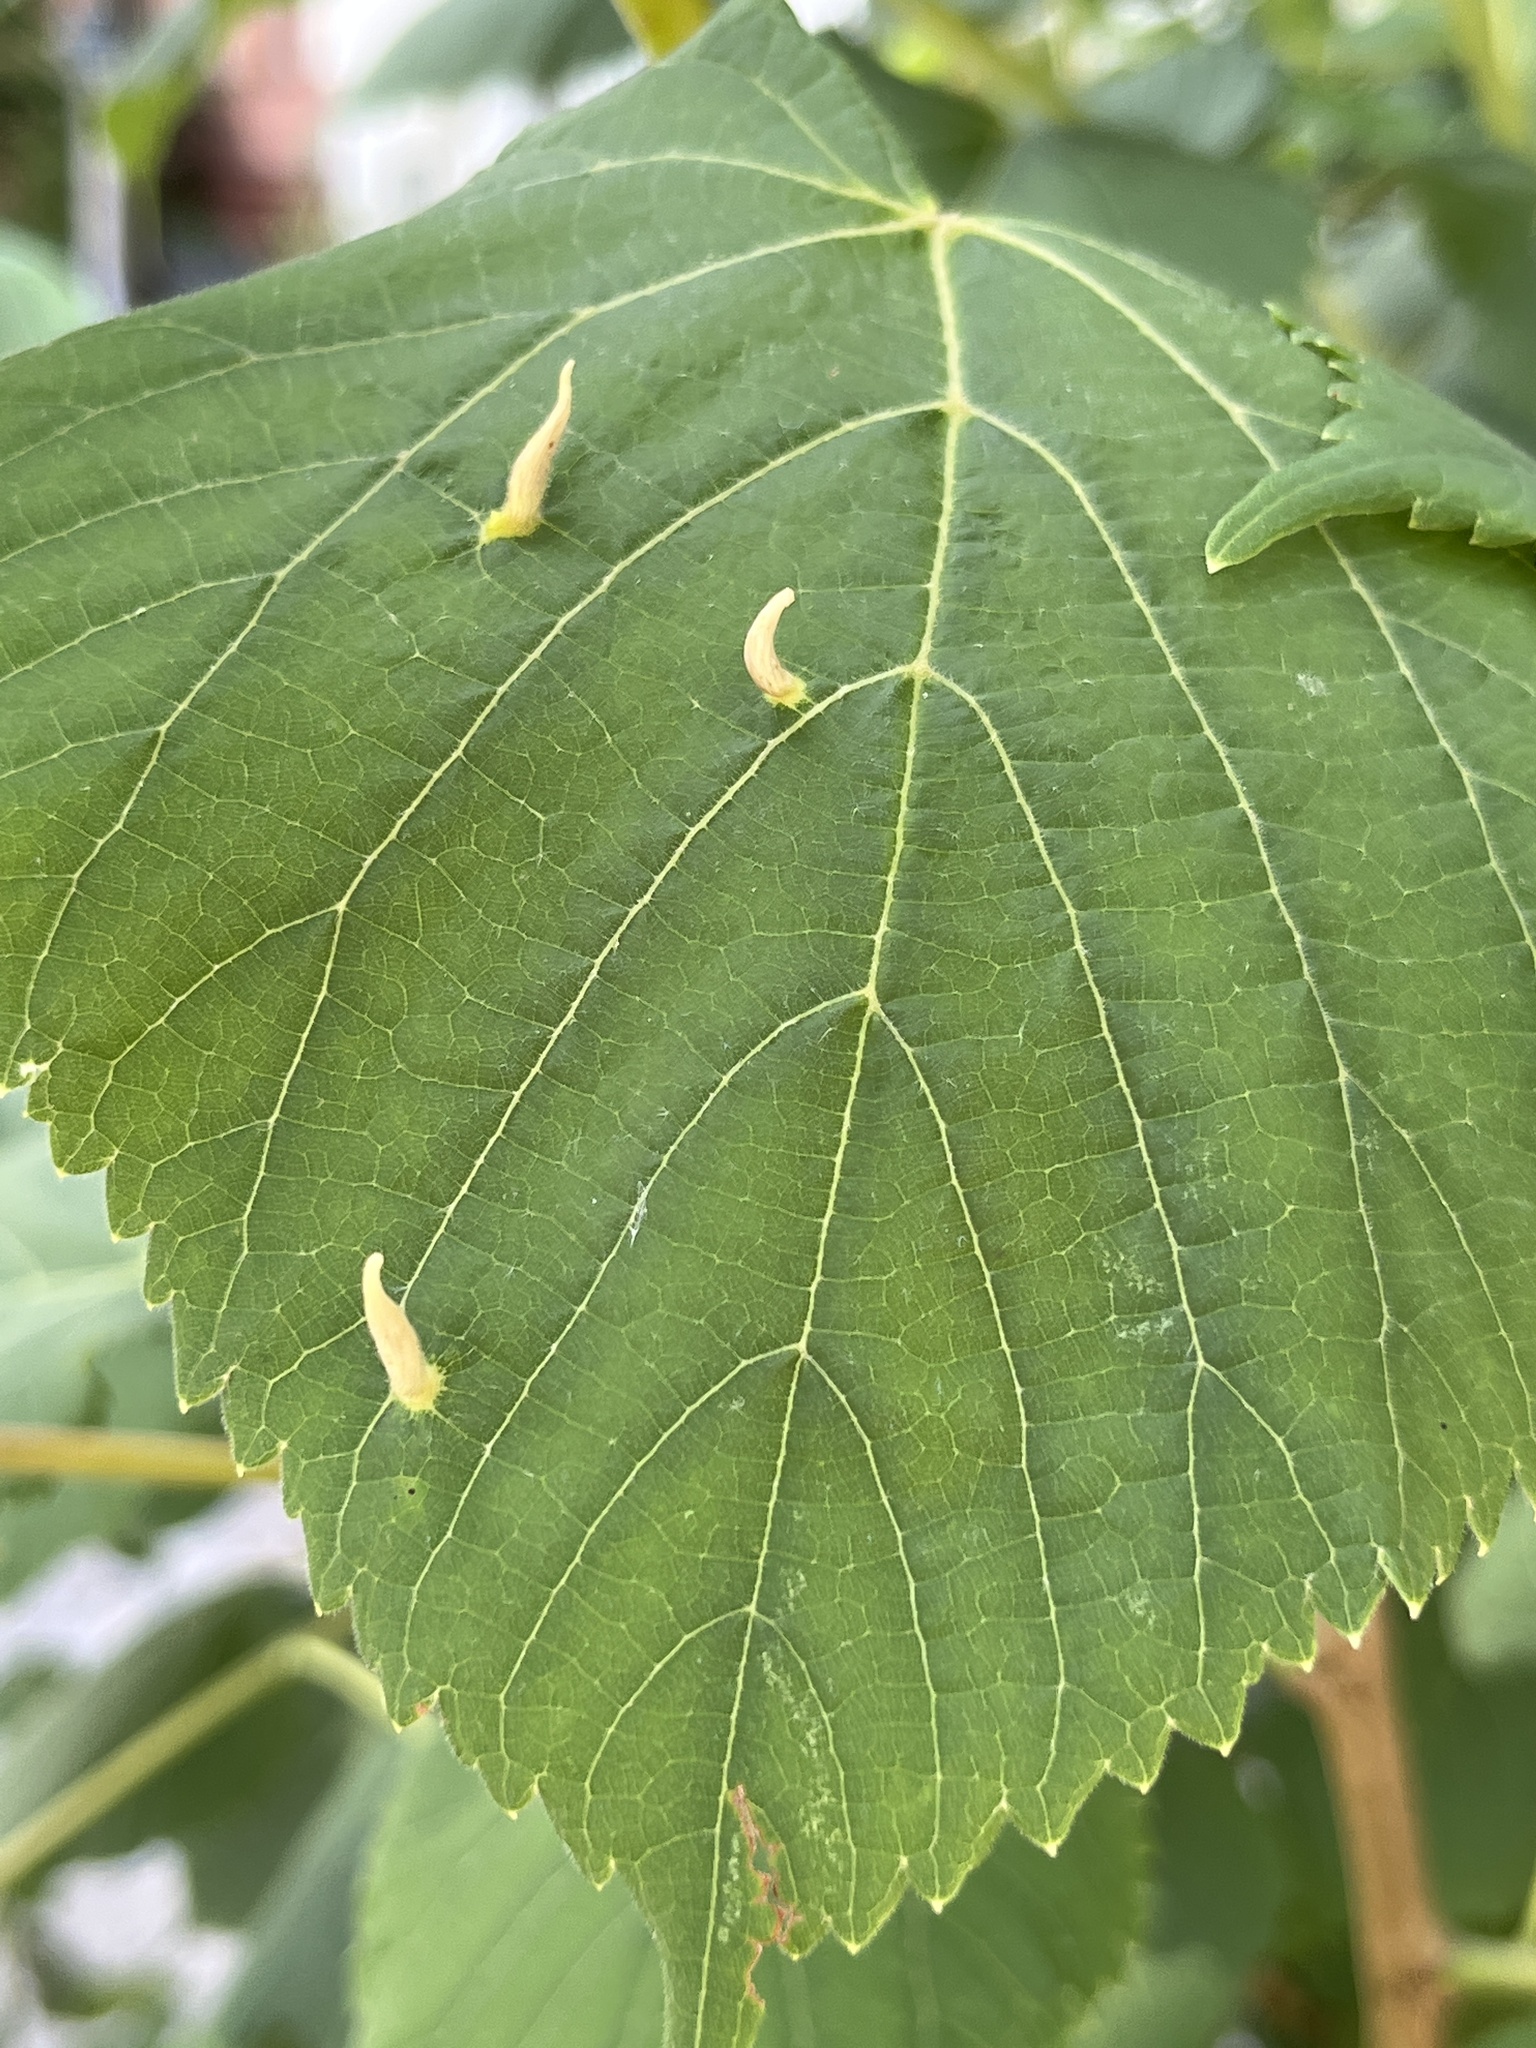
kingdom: Animalia
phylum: Arthropoda
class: Arachnida
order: Trombidiformes
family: Eriophyidae
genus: Eriophyes
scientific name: Eriophyes tiliae
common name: Red nail gall mite
